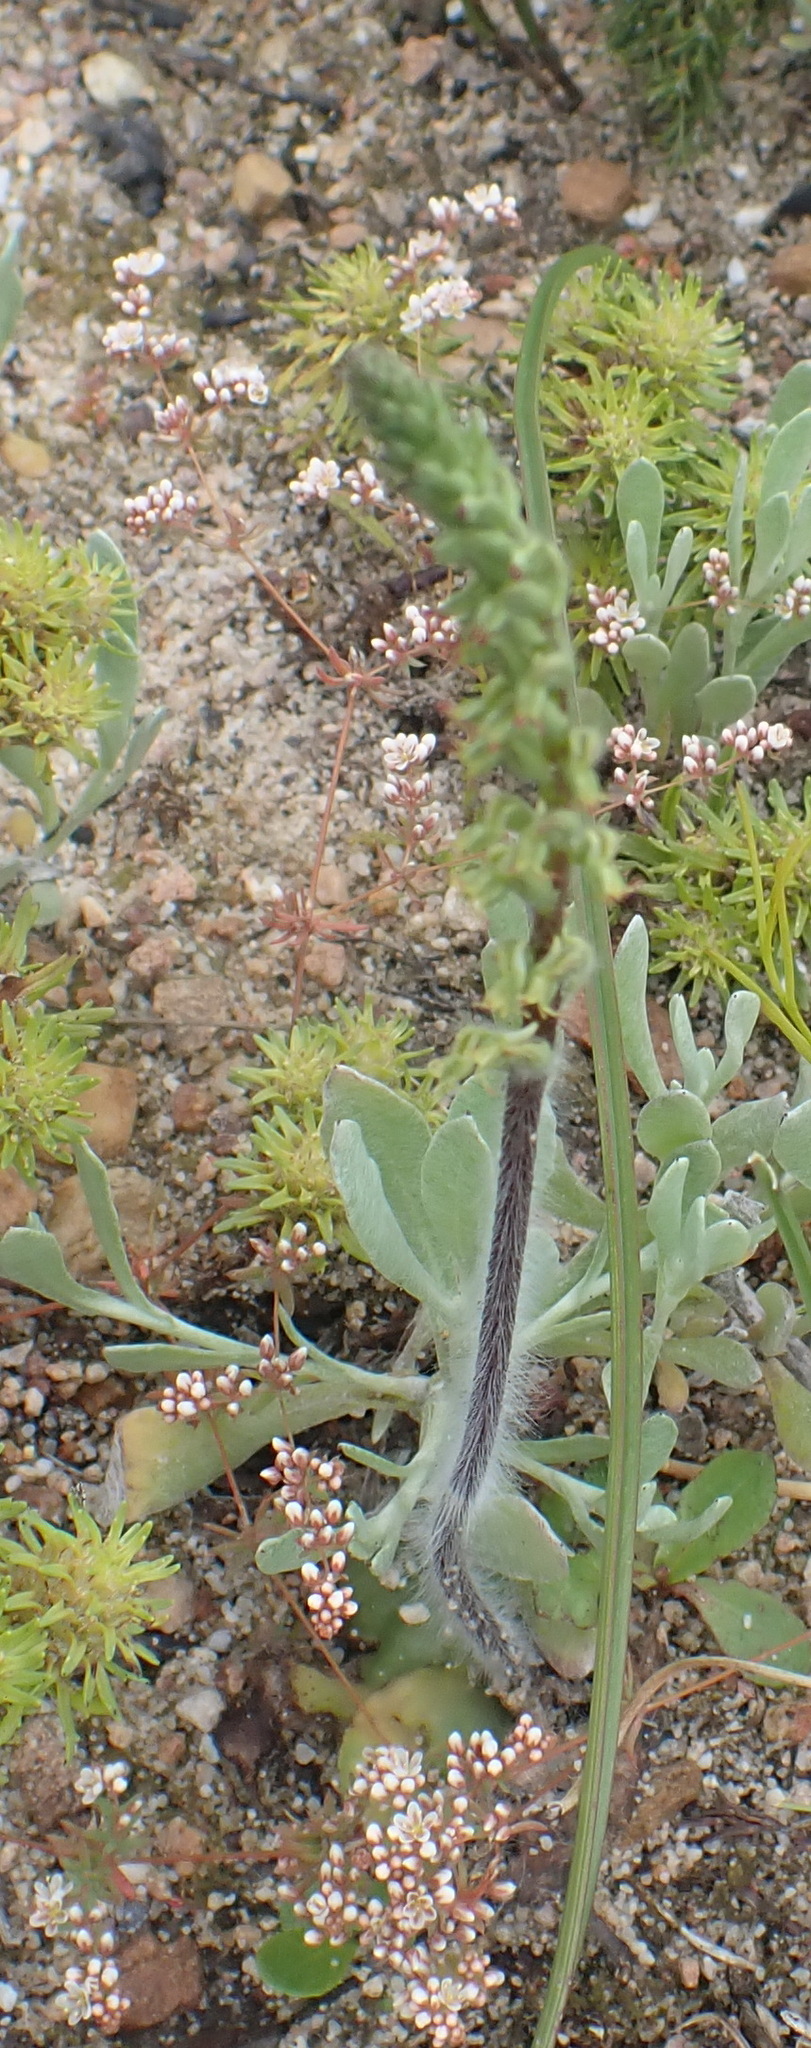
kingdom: Plantae
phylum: Tracheophyta
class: Liliopsida
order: Asparagales
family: Orchidaceae
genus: Holothrix
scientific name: Holothrix villosa
